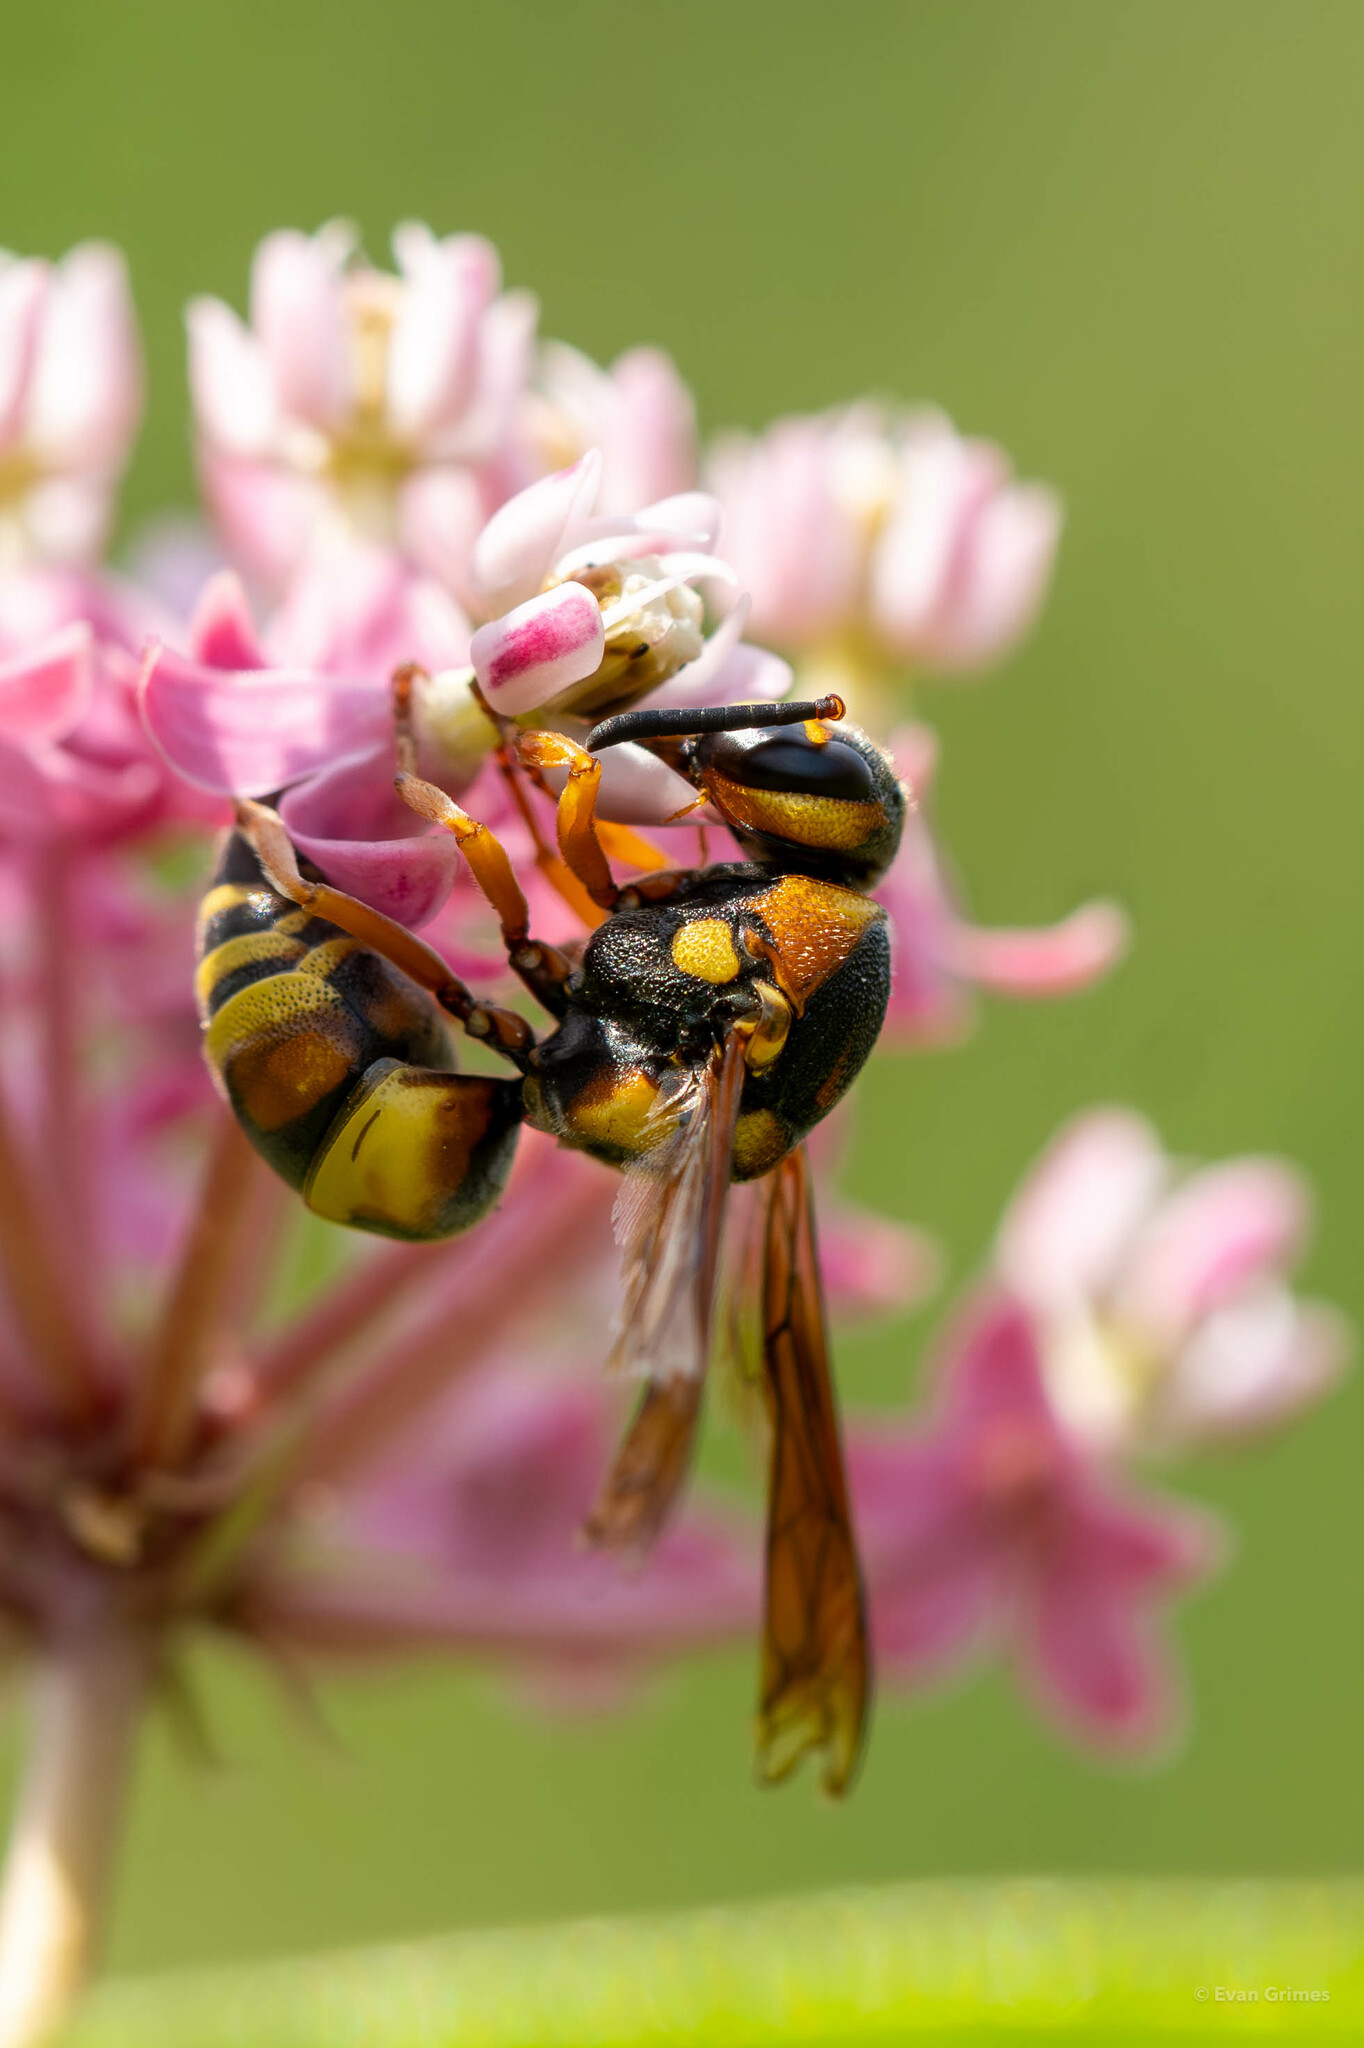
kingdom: Animalia
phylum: Arthropoda
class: Insecta
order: Hymenoptera
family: Eumenidae
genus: Euodynerus
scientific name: Euodynerus pratensis
